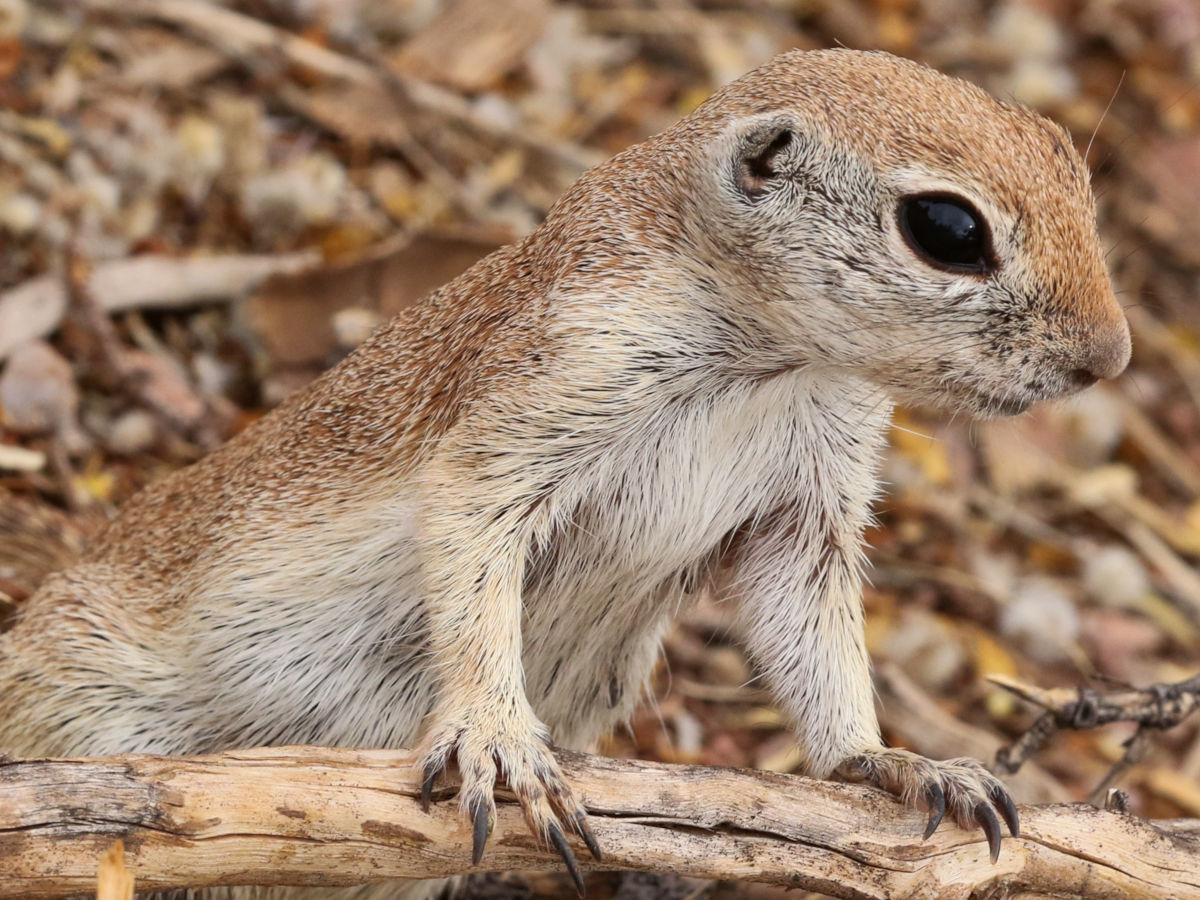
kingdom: Animalia
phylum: Chordata
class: Mammalia
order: Rodentia
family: Sciuridae
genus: Xerospermophilus
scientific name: Xerospermophilus tereticaudus
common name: Round-tailed ground squirrel
